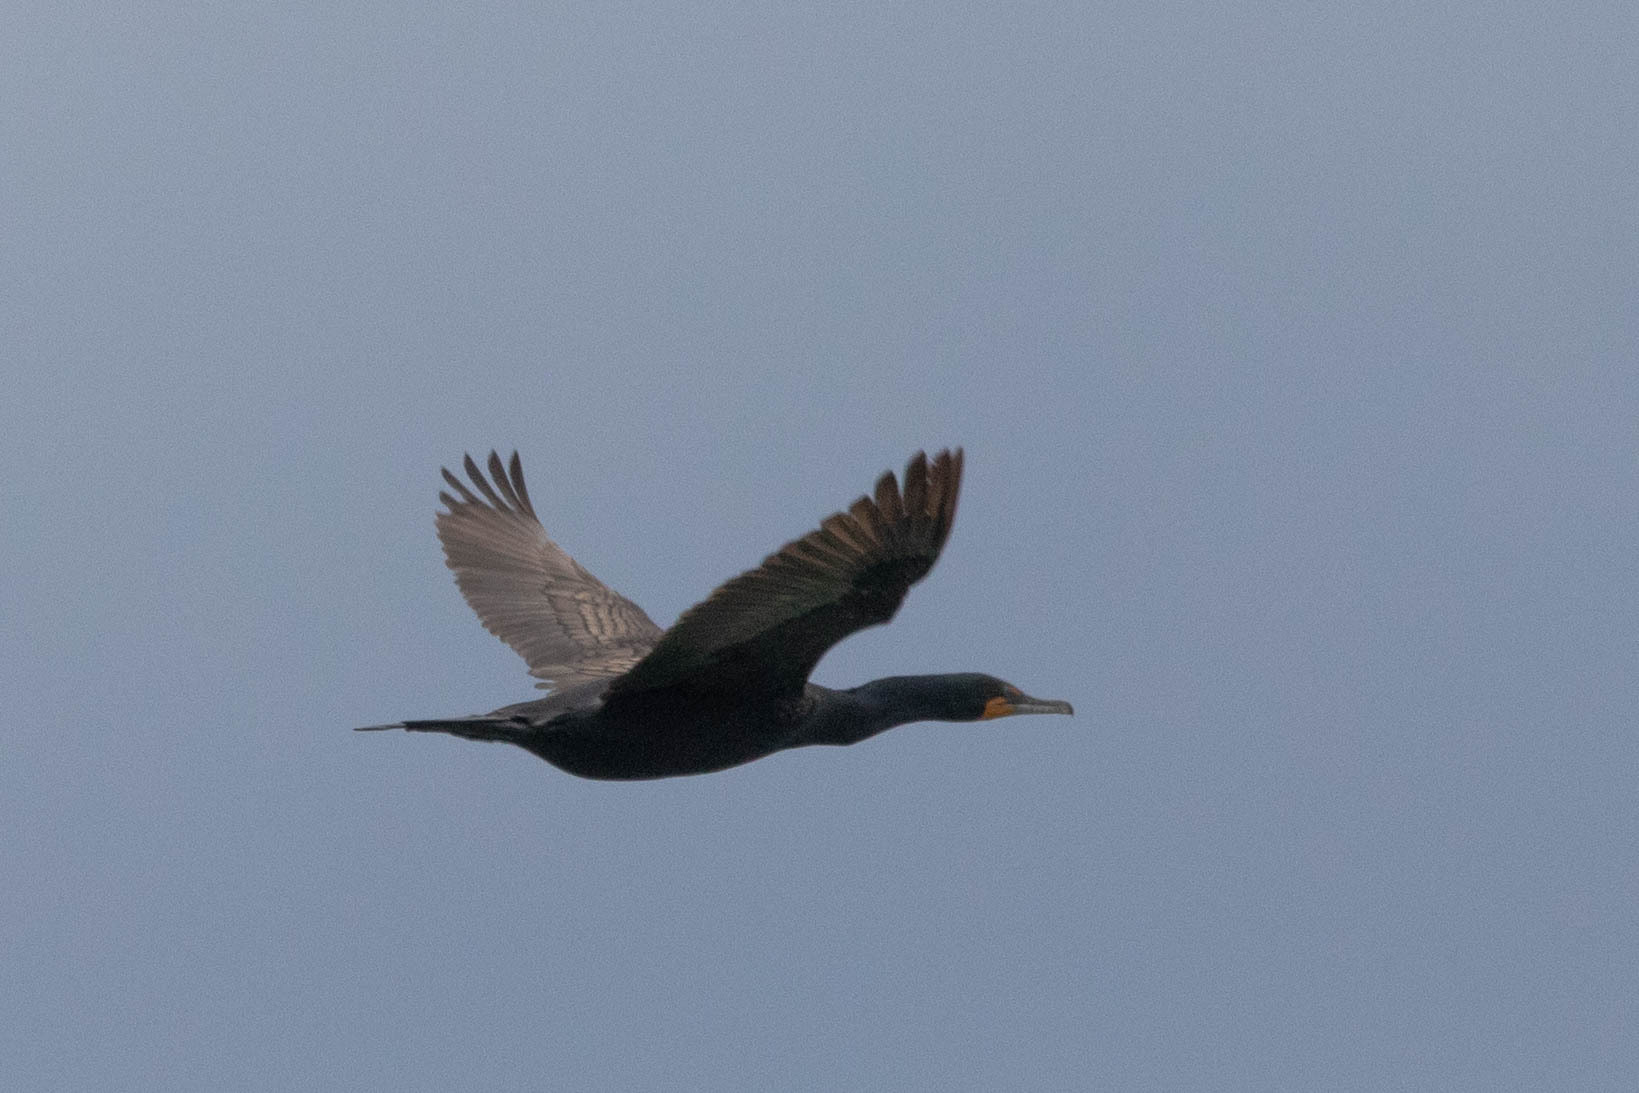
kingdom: Animalia
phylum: Chordata
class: Aves
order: Suliformes
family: Phalacrocoracidae
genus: Phalacrocorax
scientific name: Phalacrocorax auritus
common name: Double-crested cormorant
